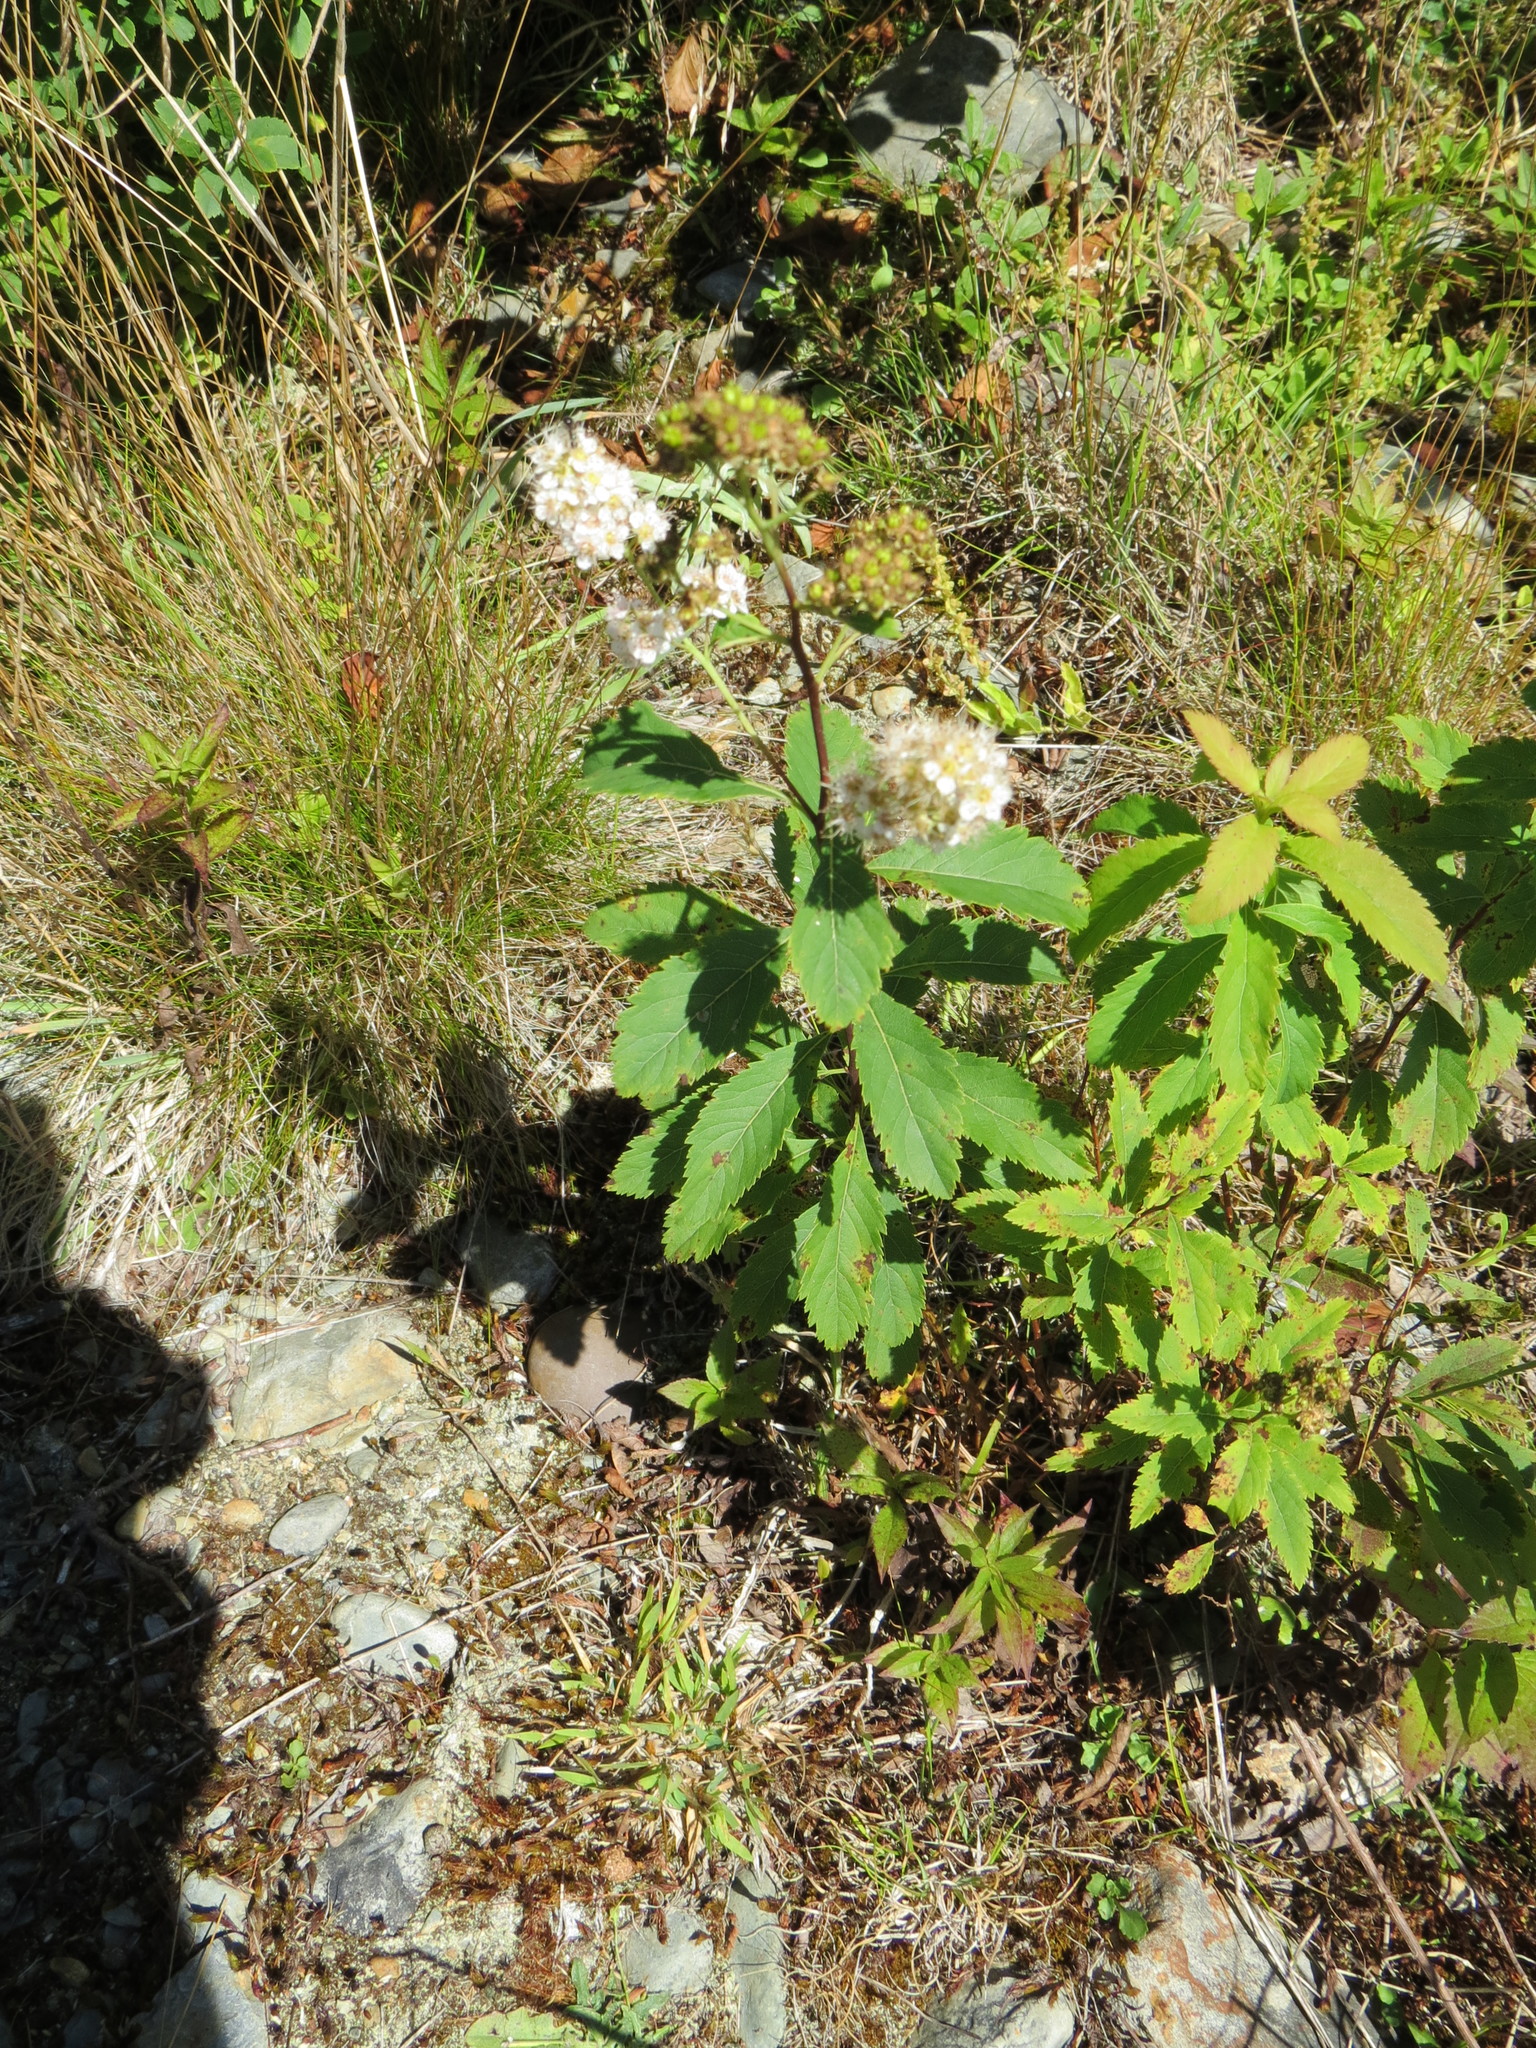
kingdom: Plantae
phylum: Tracheophyta
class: Magnoliopsida
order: Rosales
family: Rosaceae
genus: Spiraea
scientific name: Spiraea alba
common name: Pale bridewort
